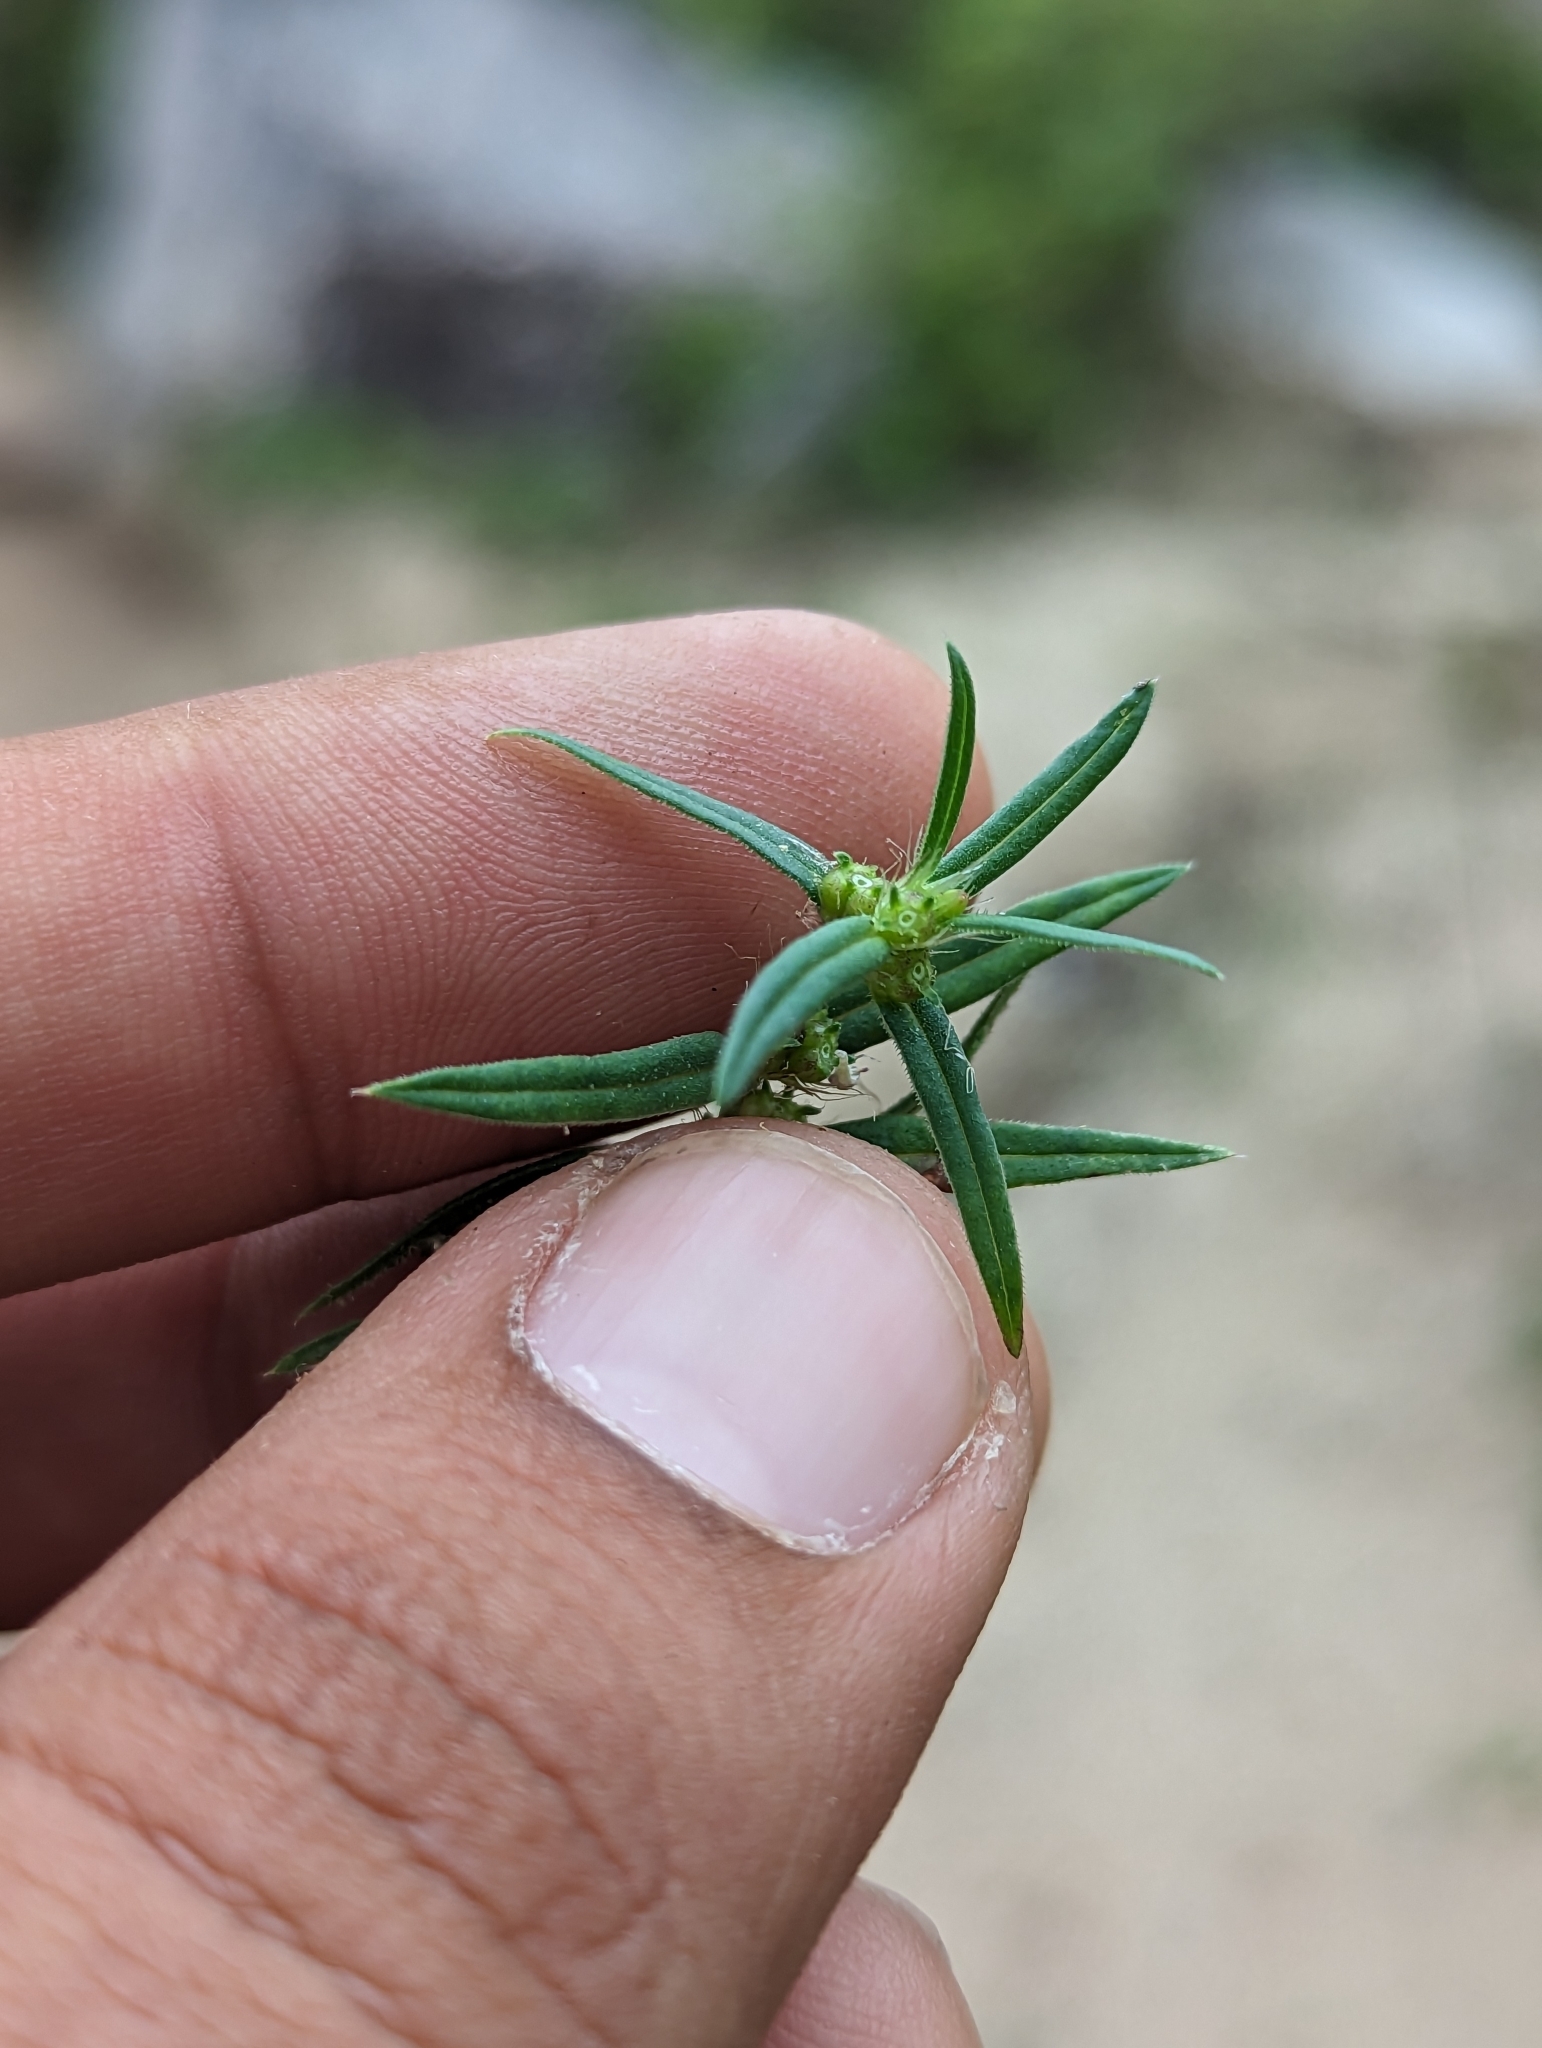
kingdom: Plantae
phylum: Tracheophyta
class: Magnoliopsida
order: Gentianales
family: Rubiaceae
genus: Hexasepalum
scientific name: Hexasepalum teres
